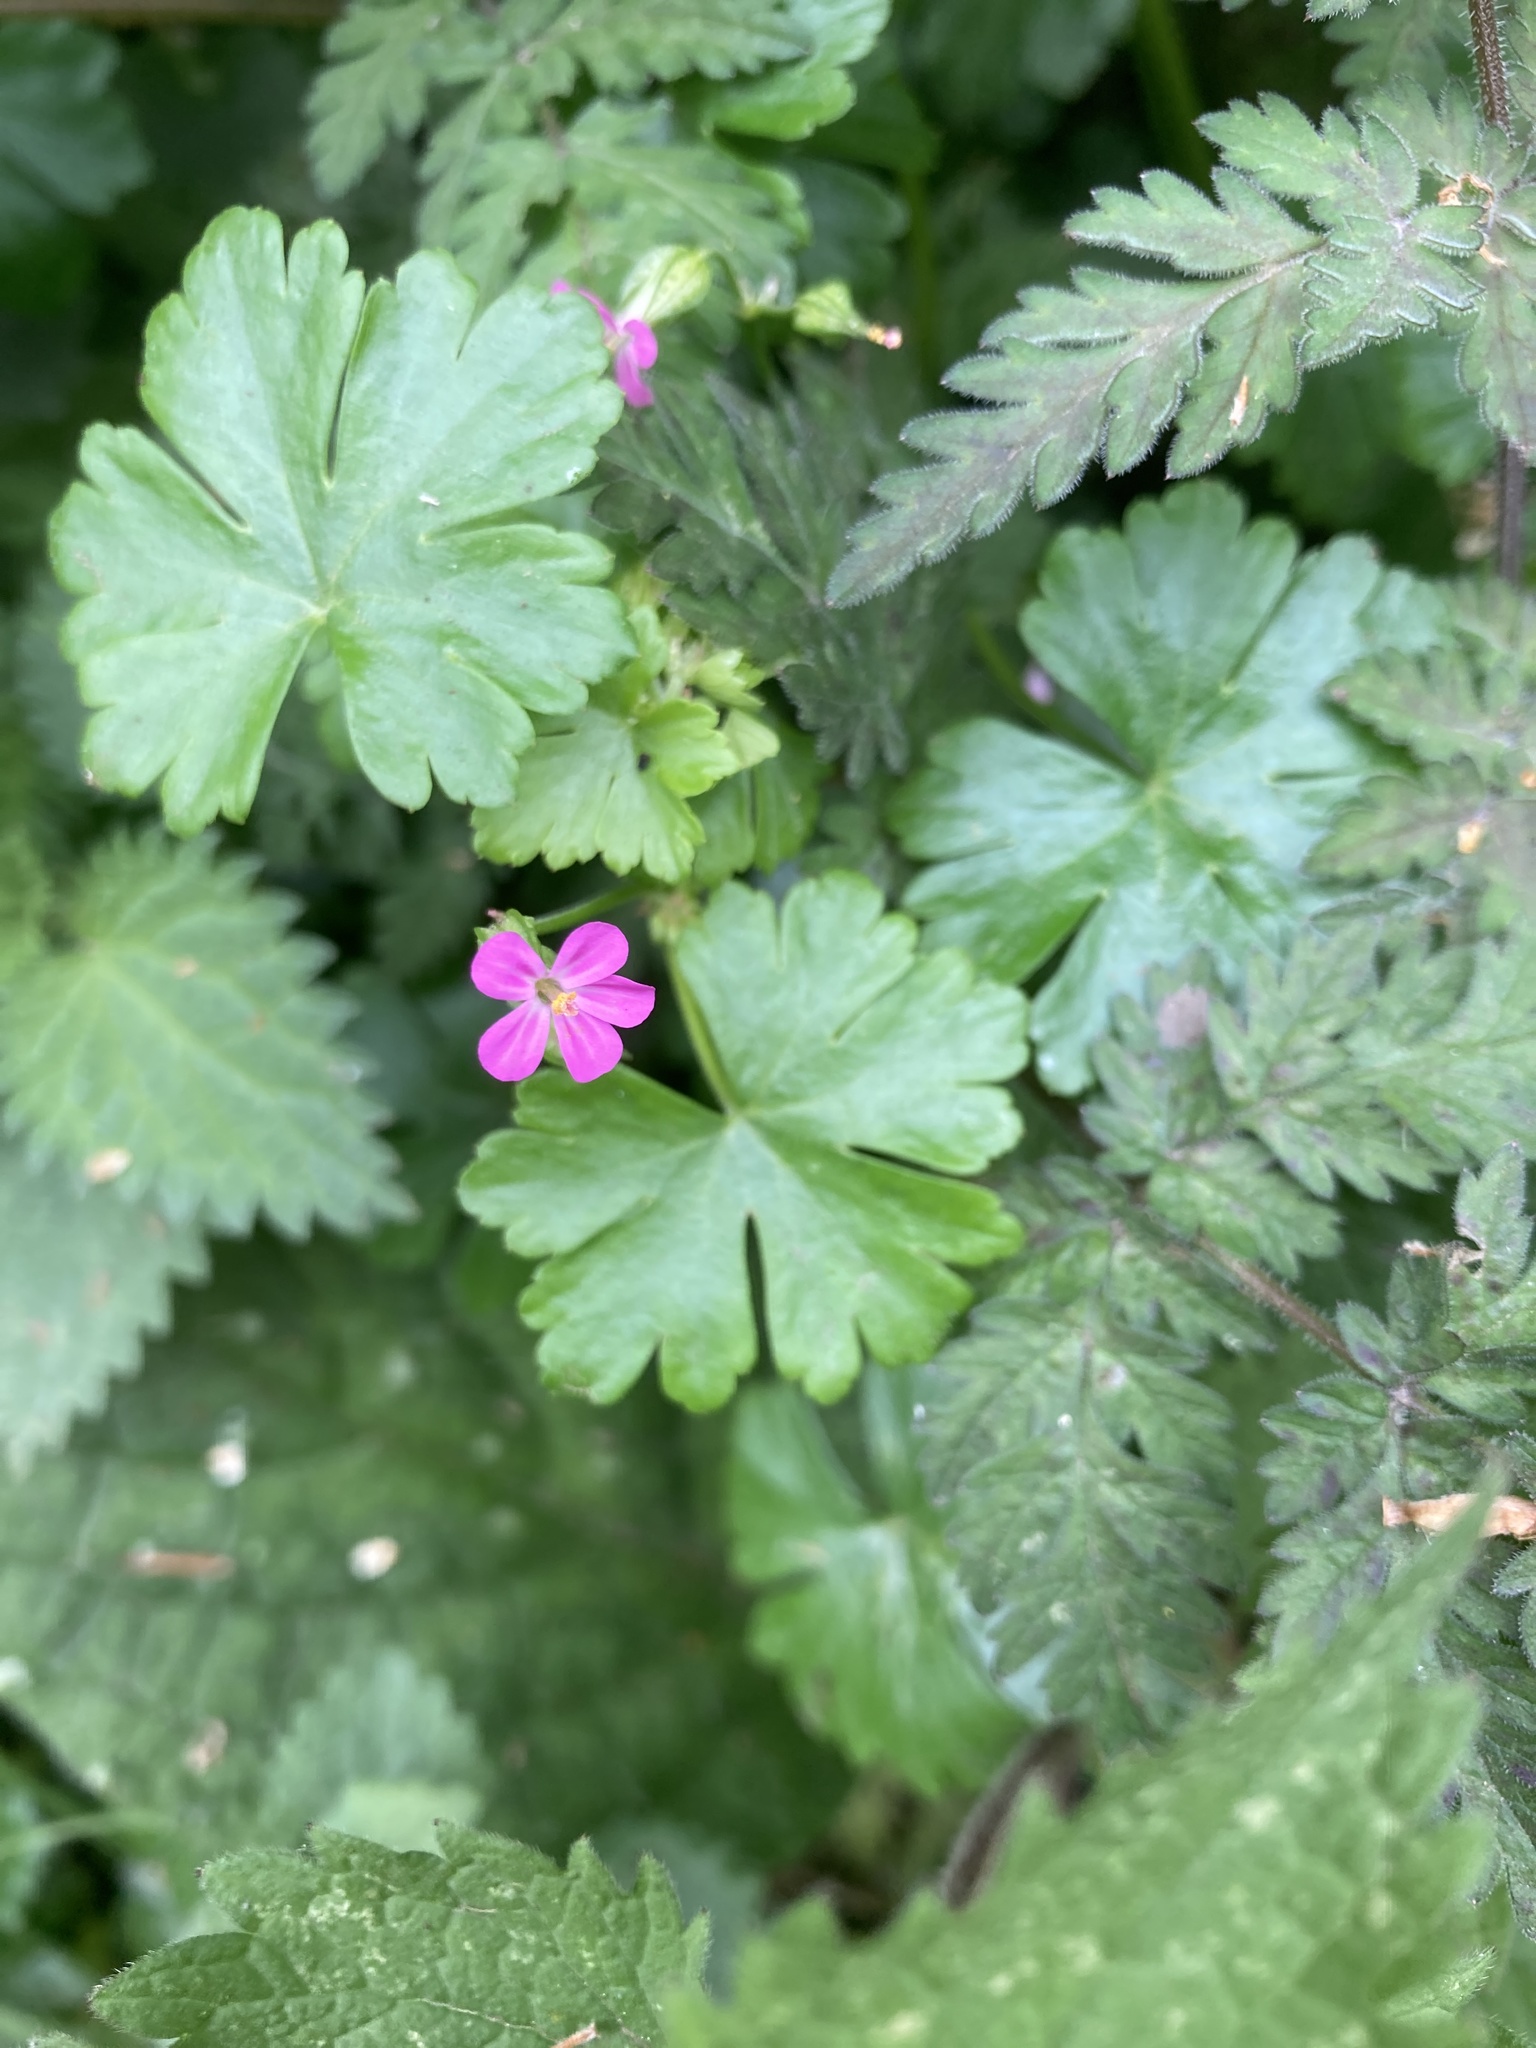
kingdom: Plantae
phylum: Tracheophyta
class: Magnoliopsida
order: Geraniales
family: Geraniaceae
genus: Geranium
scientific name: Geranium lucidum
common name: Shining crane's-bill
